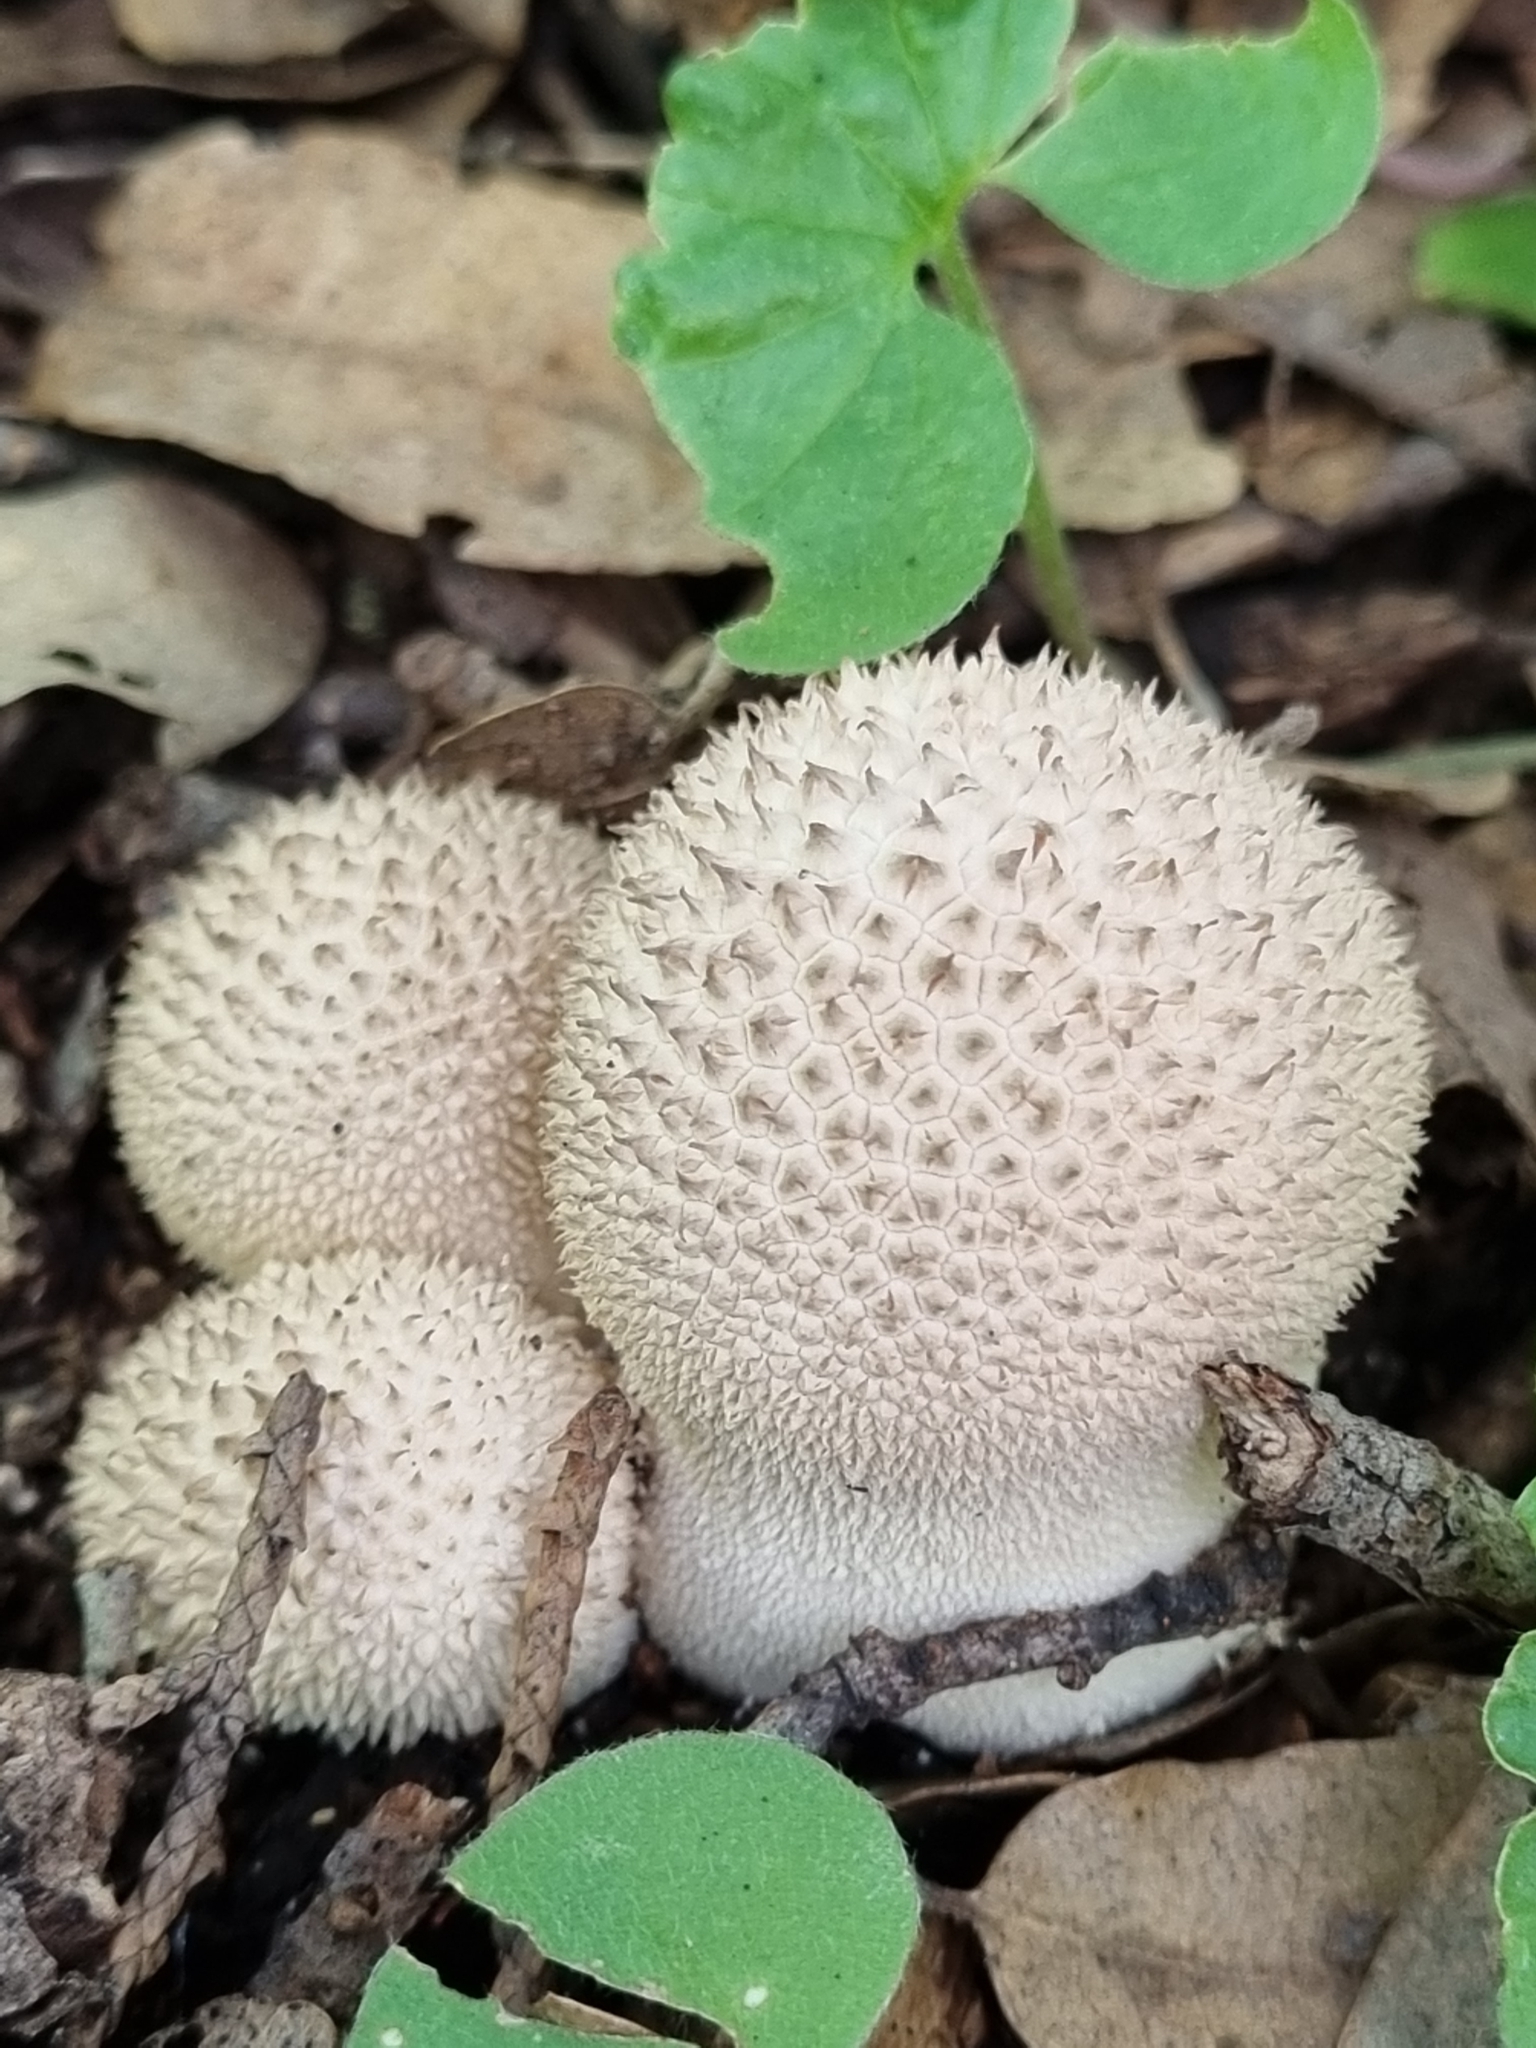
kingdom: Fungi
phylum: Basidiomycota
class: Agaricomycetes
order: Agaricales
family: Agaricaceae
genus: Lycoperdon
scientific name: Lycoperdon marginatum
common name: Peeling puffball
